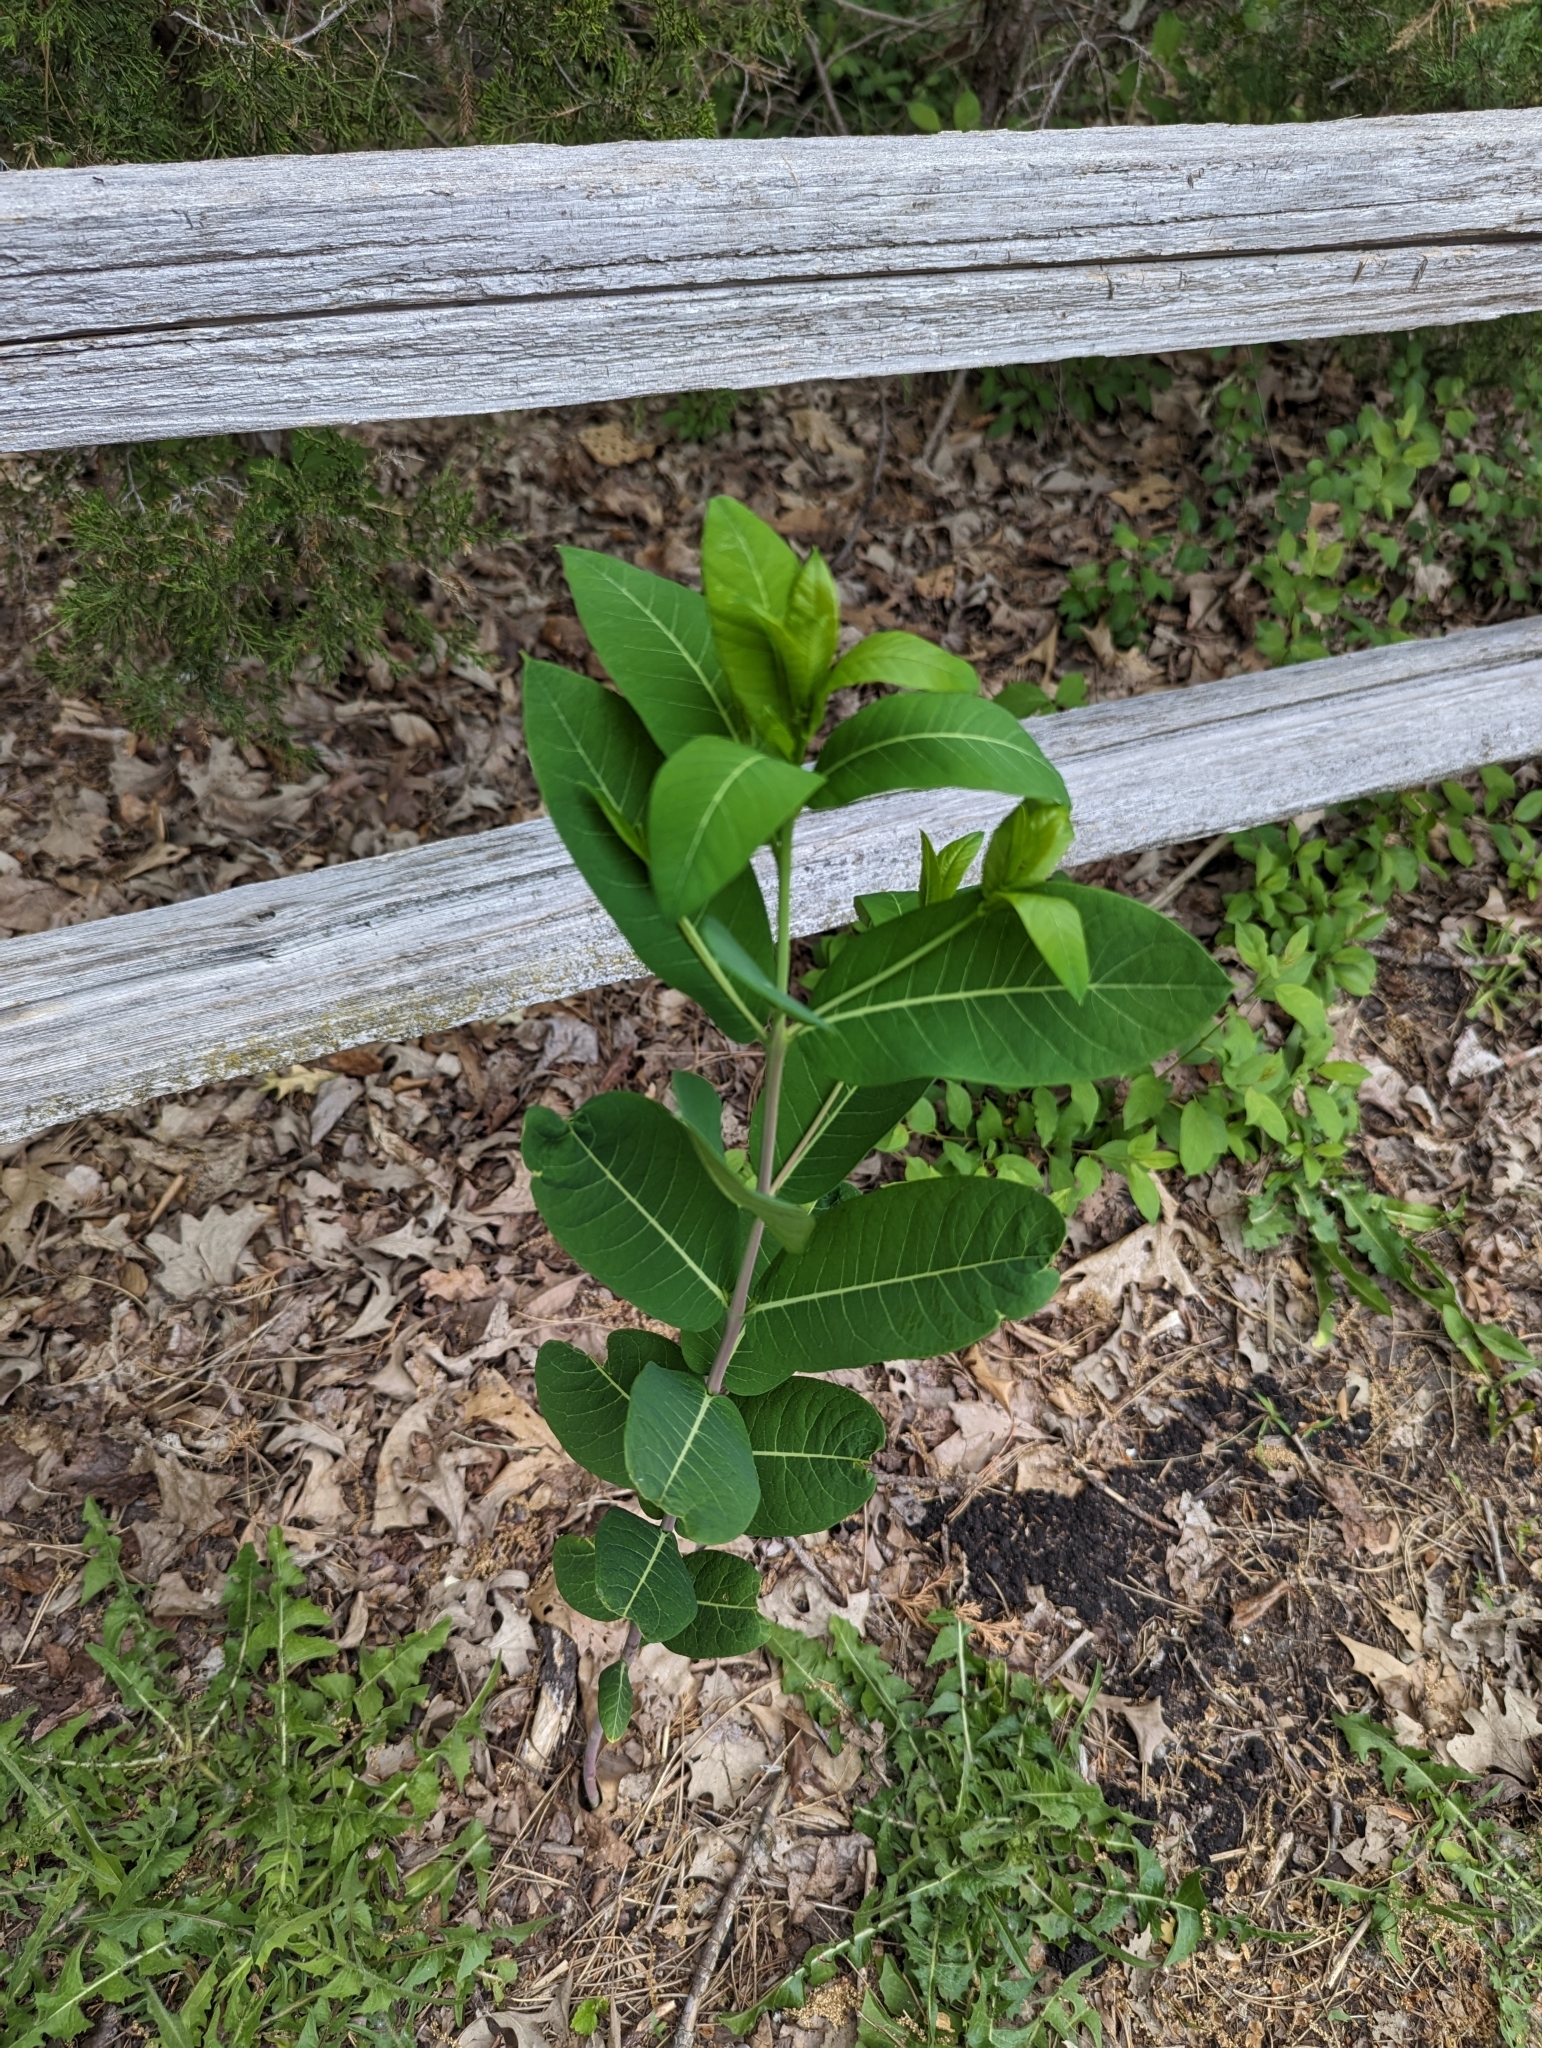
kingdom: Plantae
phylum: Tracheophyta
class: Magnoliopsida
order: Gentianales
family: Apocynaceae
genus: Apocynum
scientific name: Apocynum cannabinum
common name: Hemp dogbane
